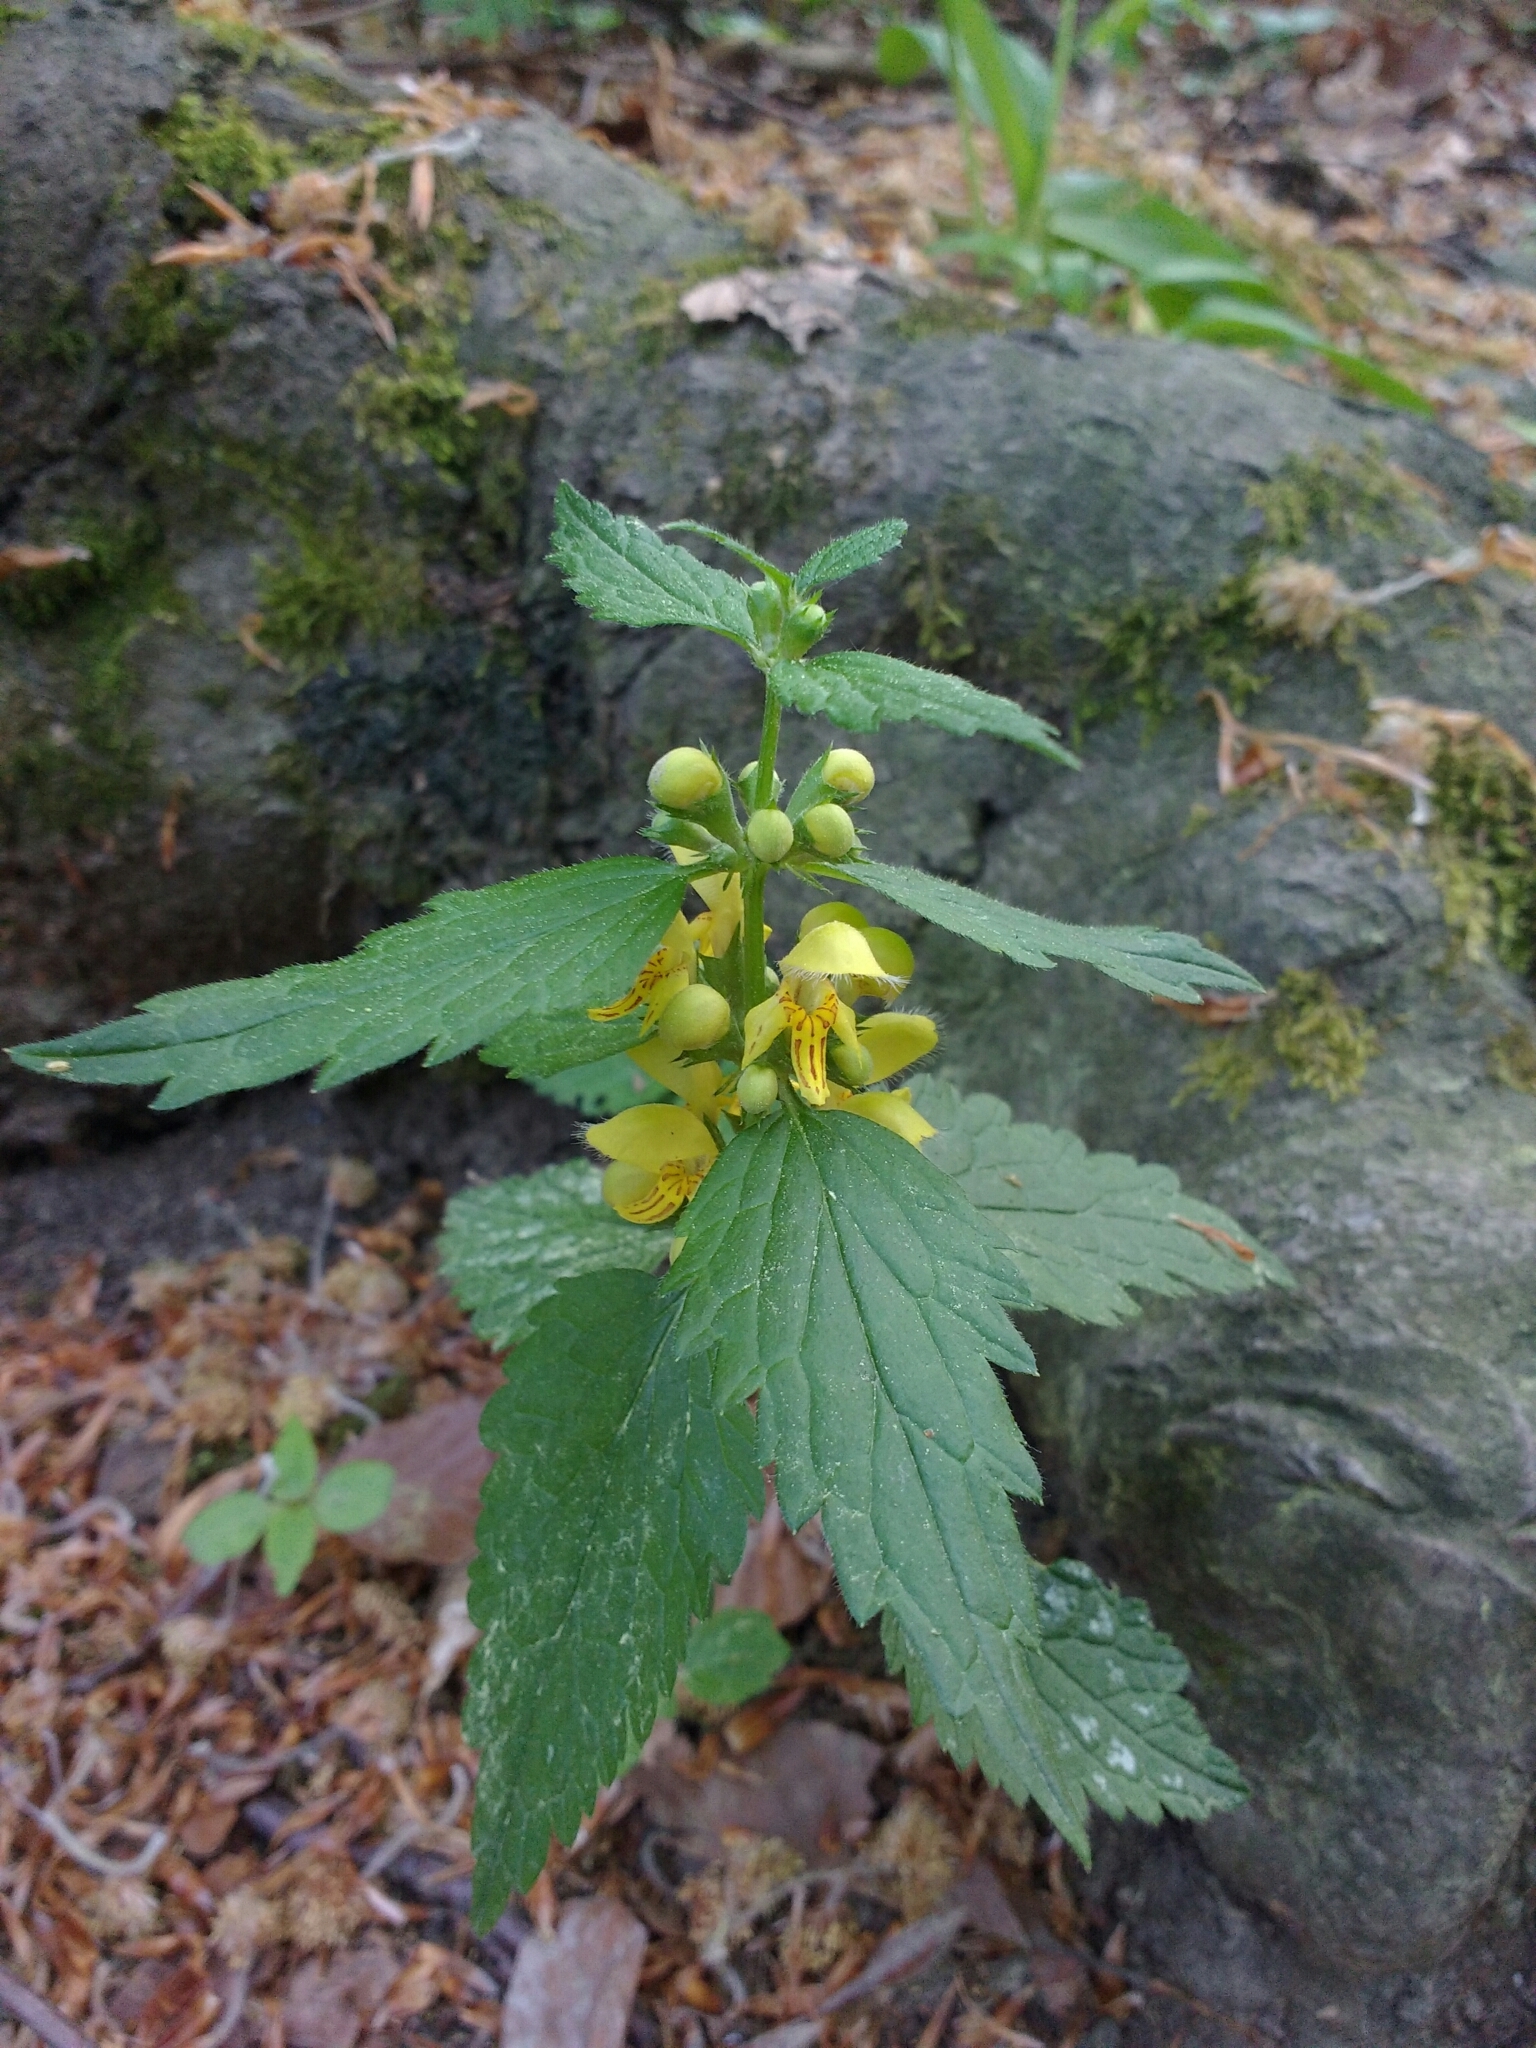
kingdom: Plantae
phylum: Tracheophyta
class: Magnoliopsida
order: Lamiales
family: Lamiaceae
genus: Lamium
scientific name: Lamium galeobdolon
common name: Yellow archangel
